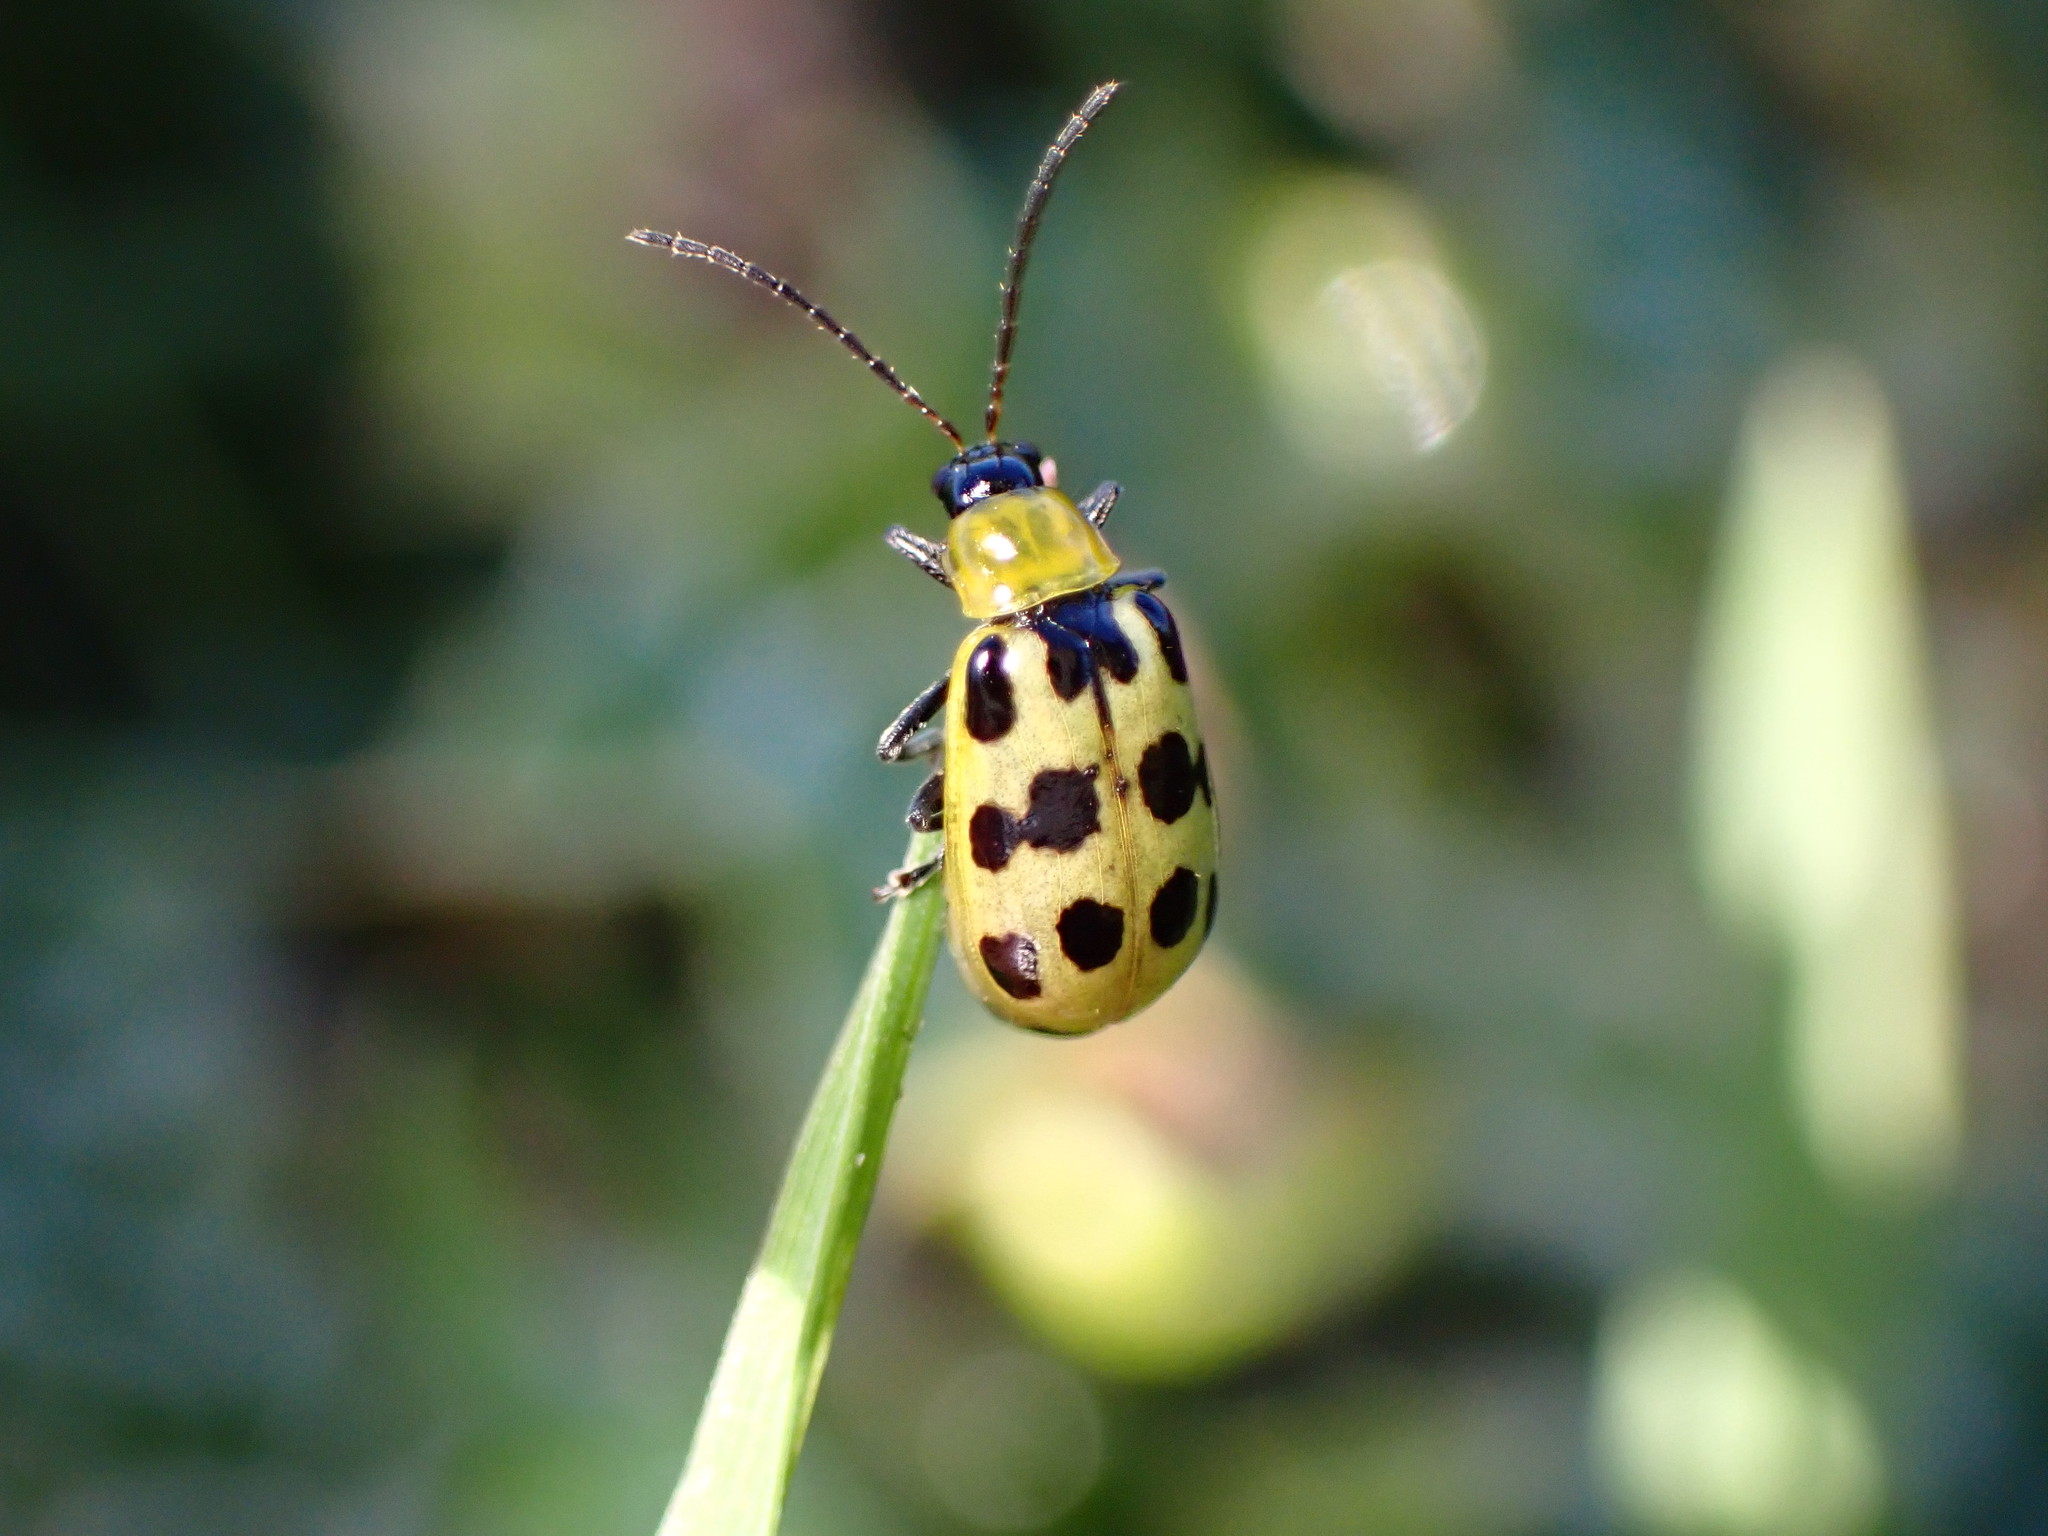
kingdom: Animalia
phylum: Arthropoda
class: Insecta
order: Coleoptera
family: Chrysomelidae
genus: Diabrotica
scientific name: Diabrotica undecimpunctata
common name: Spotted cucumber beetle
